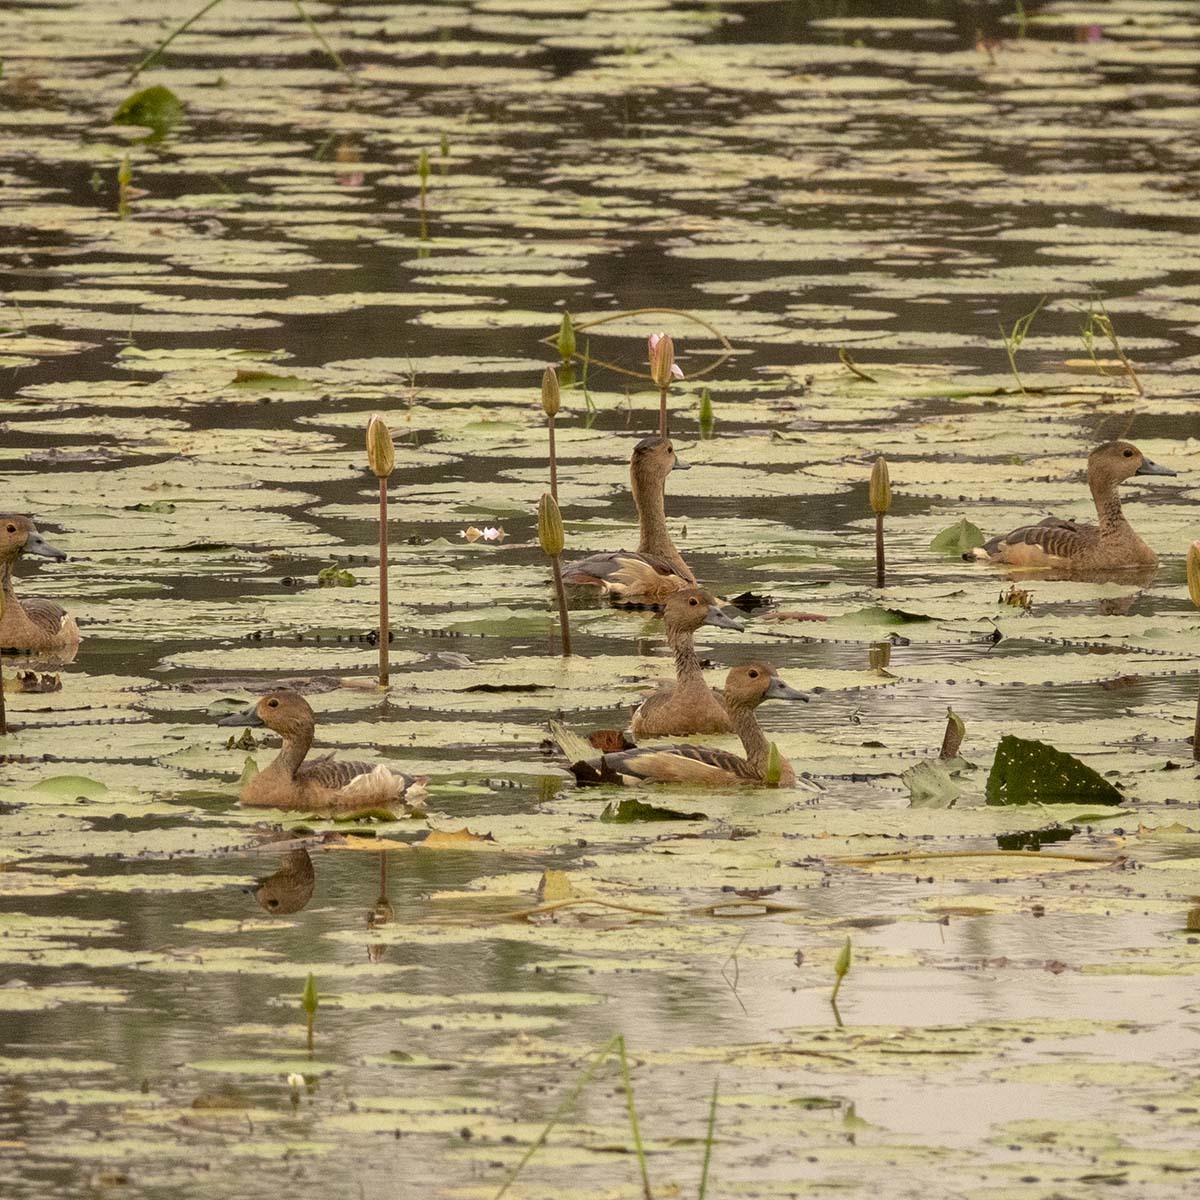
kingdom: Animalia
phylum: Chordata
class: Aves
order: Anseriformes
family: Anatidae
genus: Dendrocygna
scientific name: Dendrocygna javanica
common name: Lesser whistling-duck
